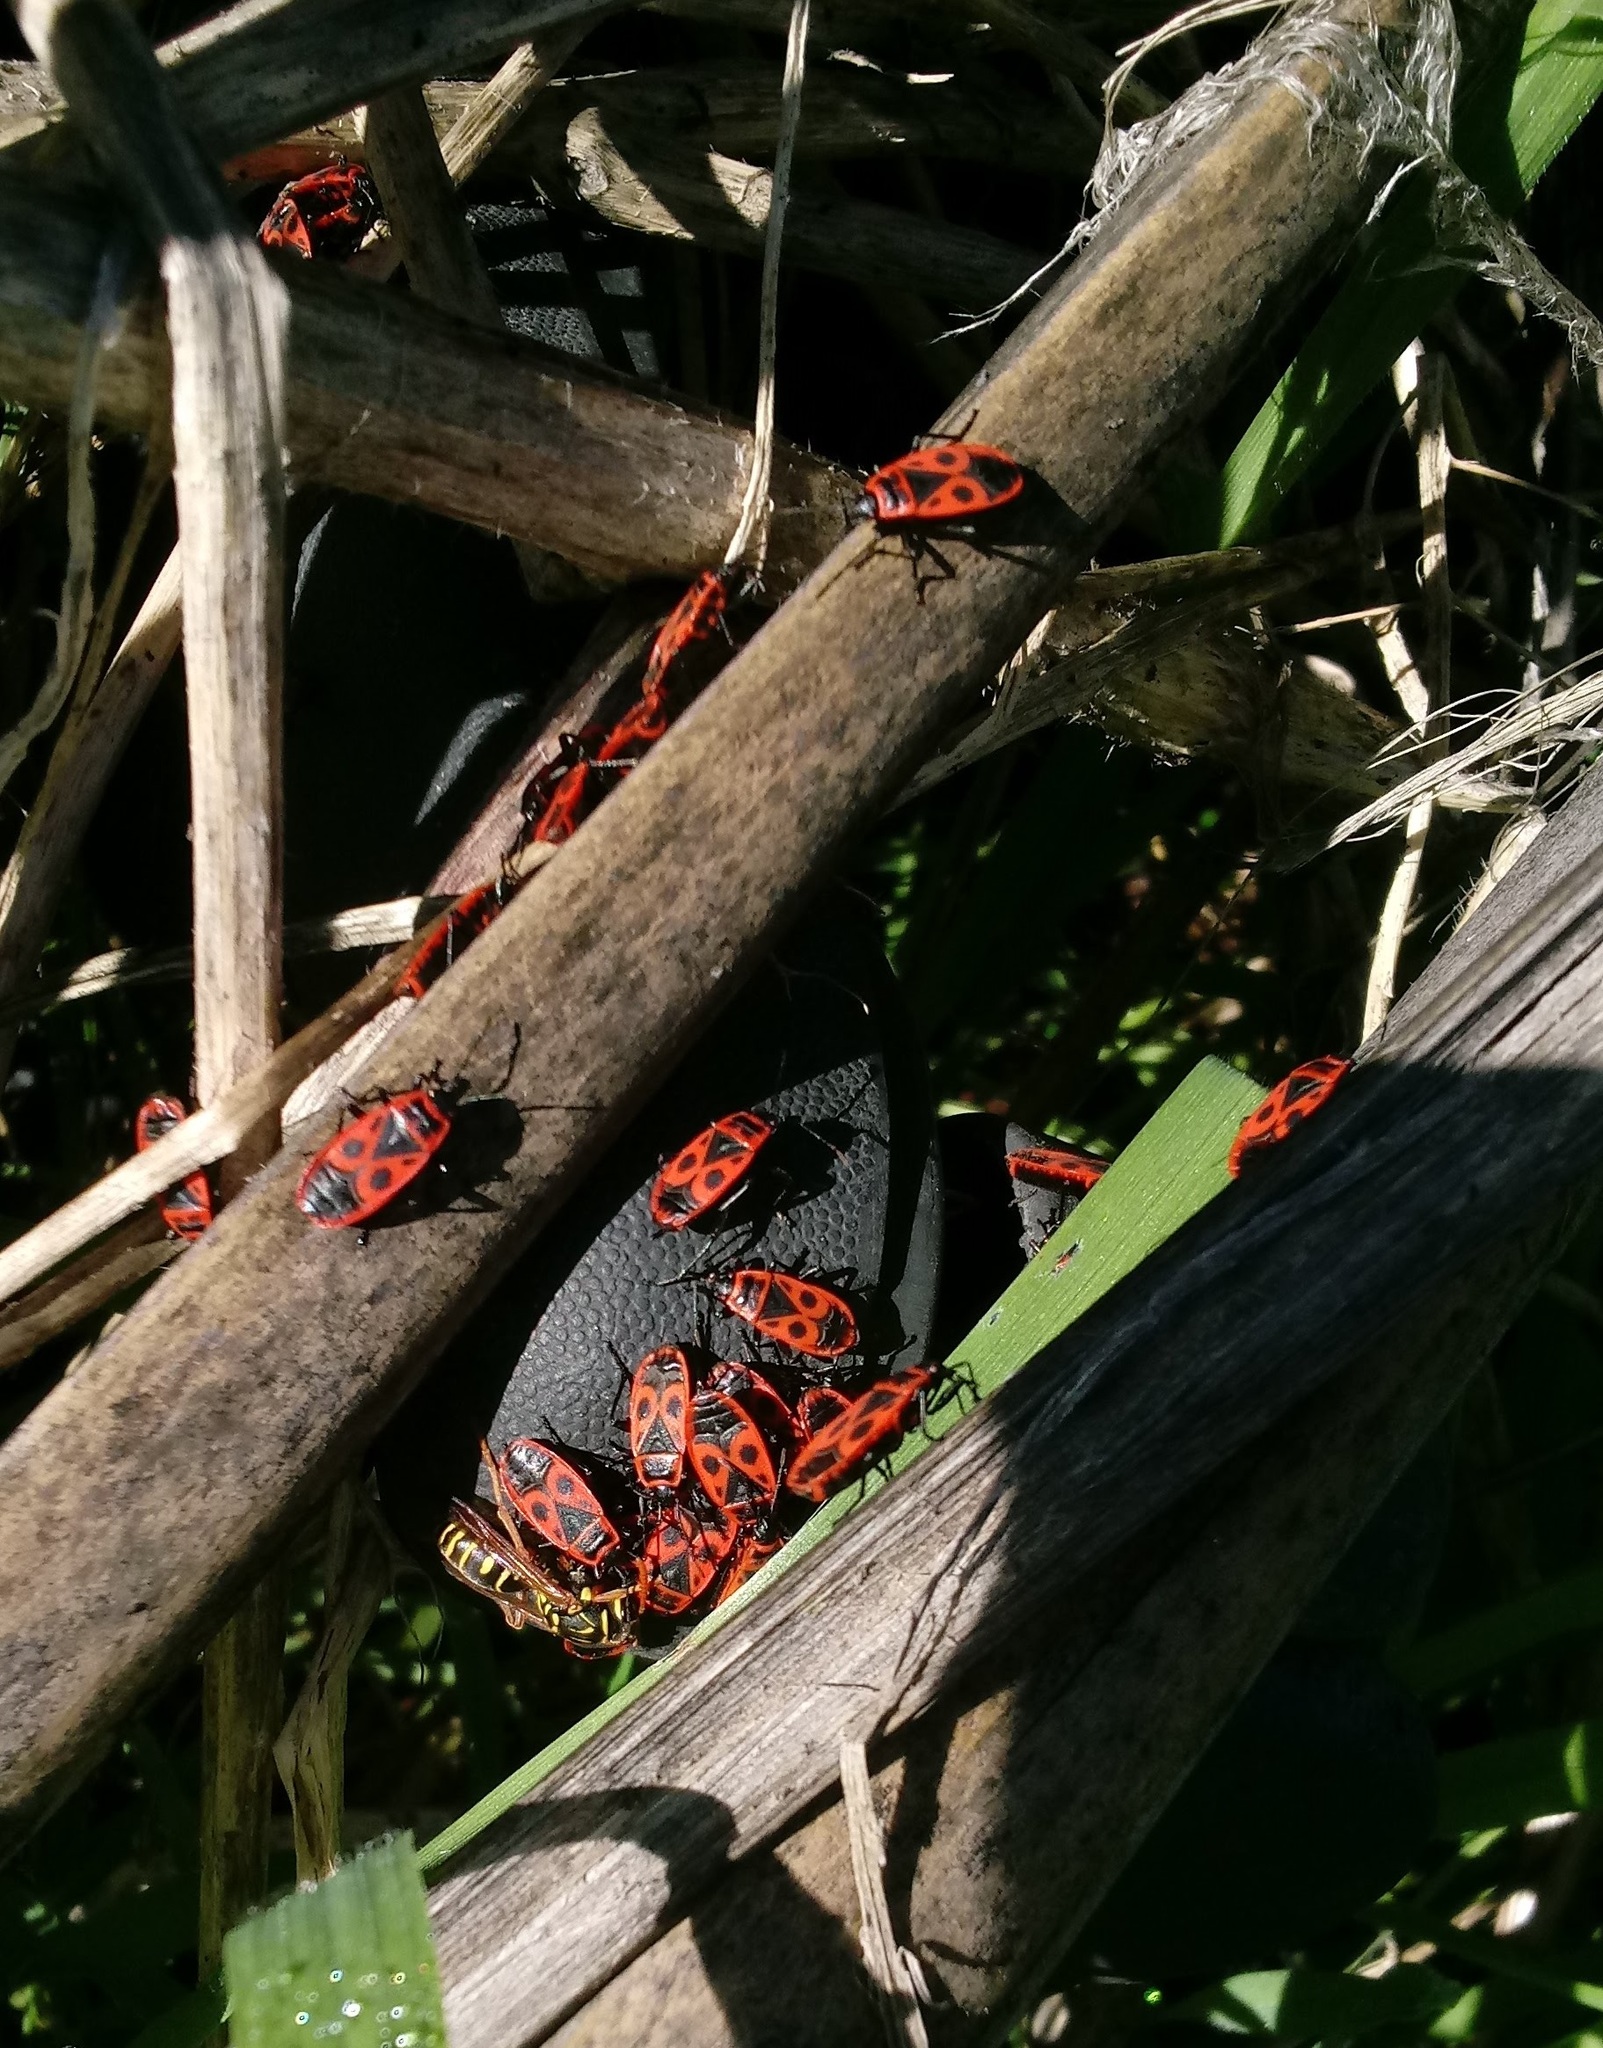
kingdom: Animalia
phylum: Arthropoda
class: Insecta
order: Hemiptera
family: Pyrrhocoridae
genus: Pyrrhocoris
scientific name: Pyrrhocoris apterus
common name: Firebug
